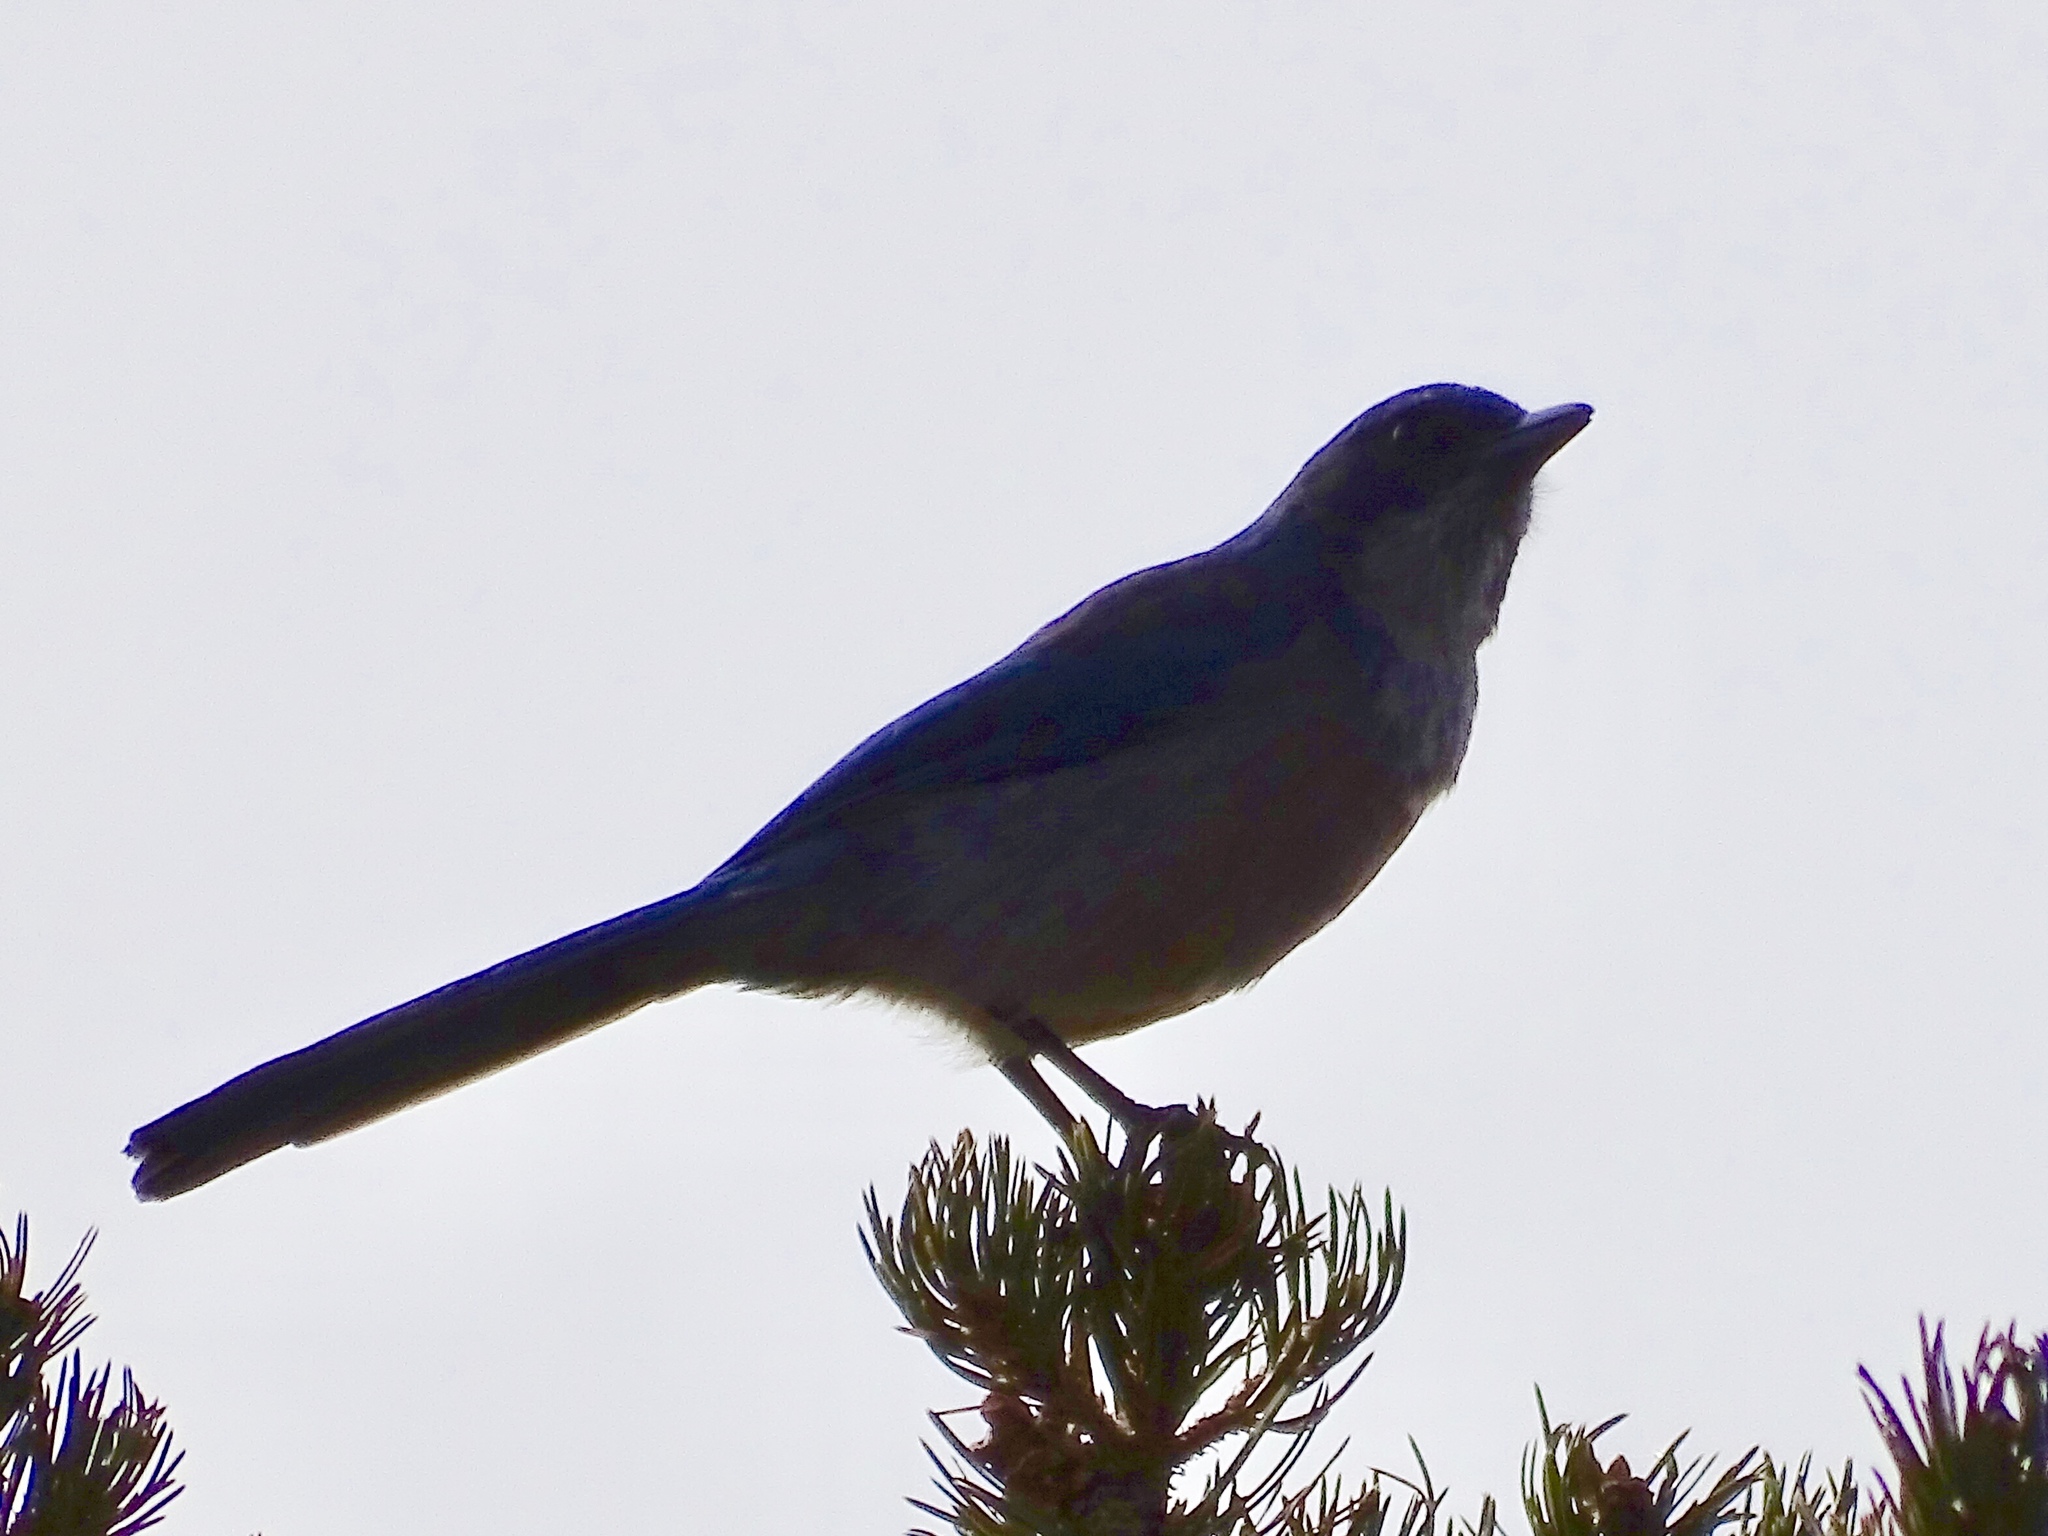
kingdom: Animalia
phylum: Chordata
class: Aves
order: Passeriformes
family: Corvidae
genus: Aphelocoma
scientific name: Aphelocoma woodhouseii
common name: Woodhouse's scrub-jay
